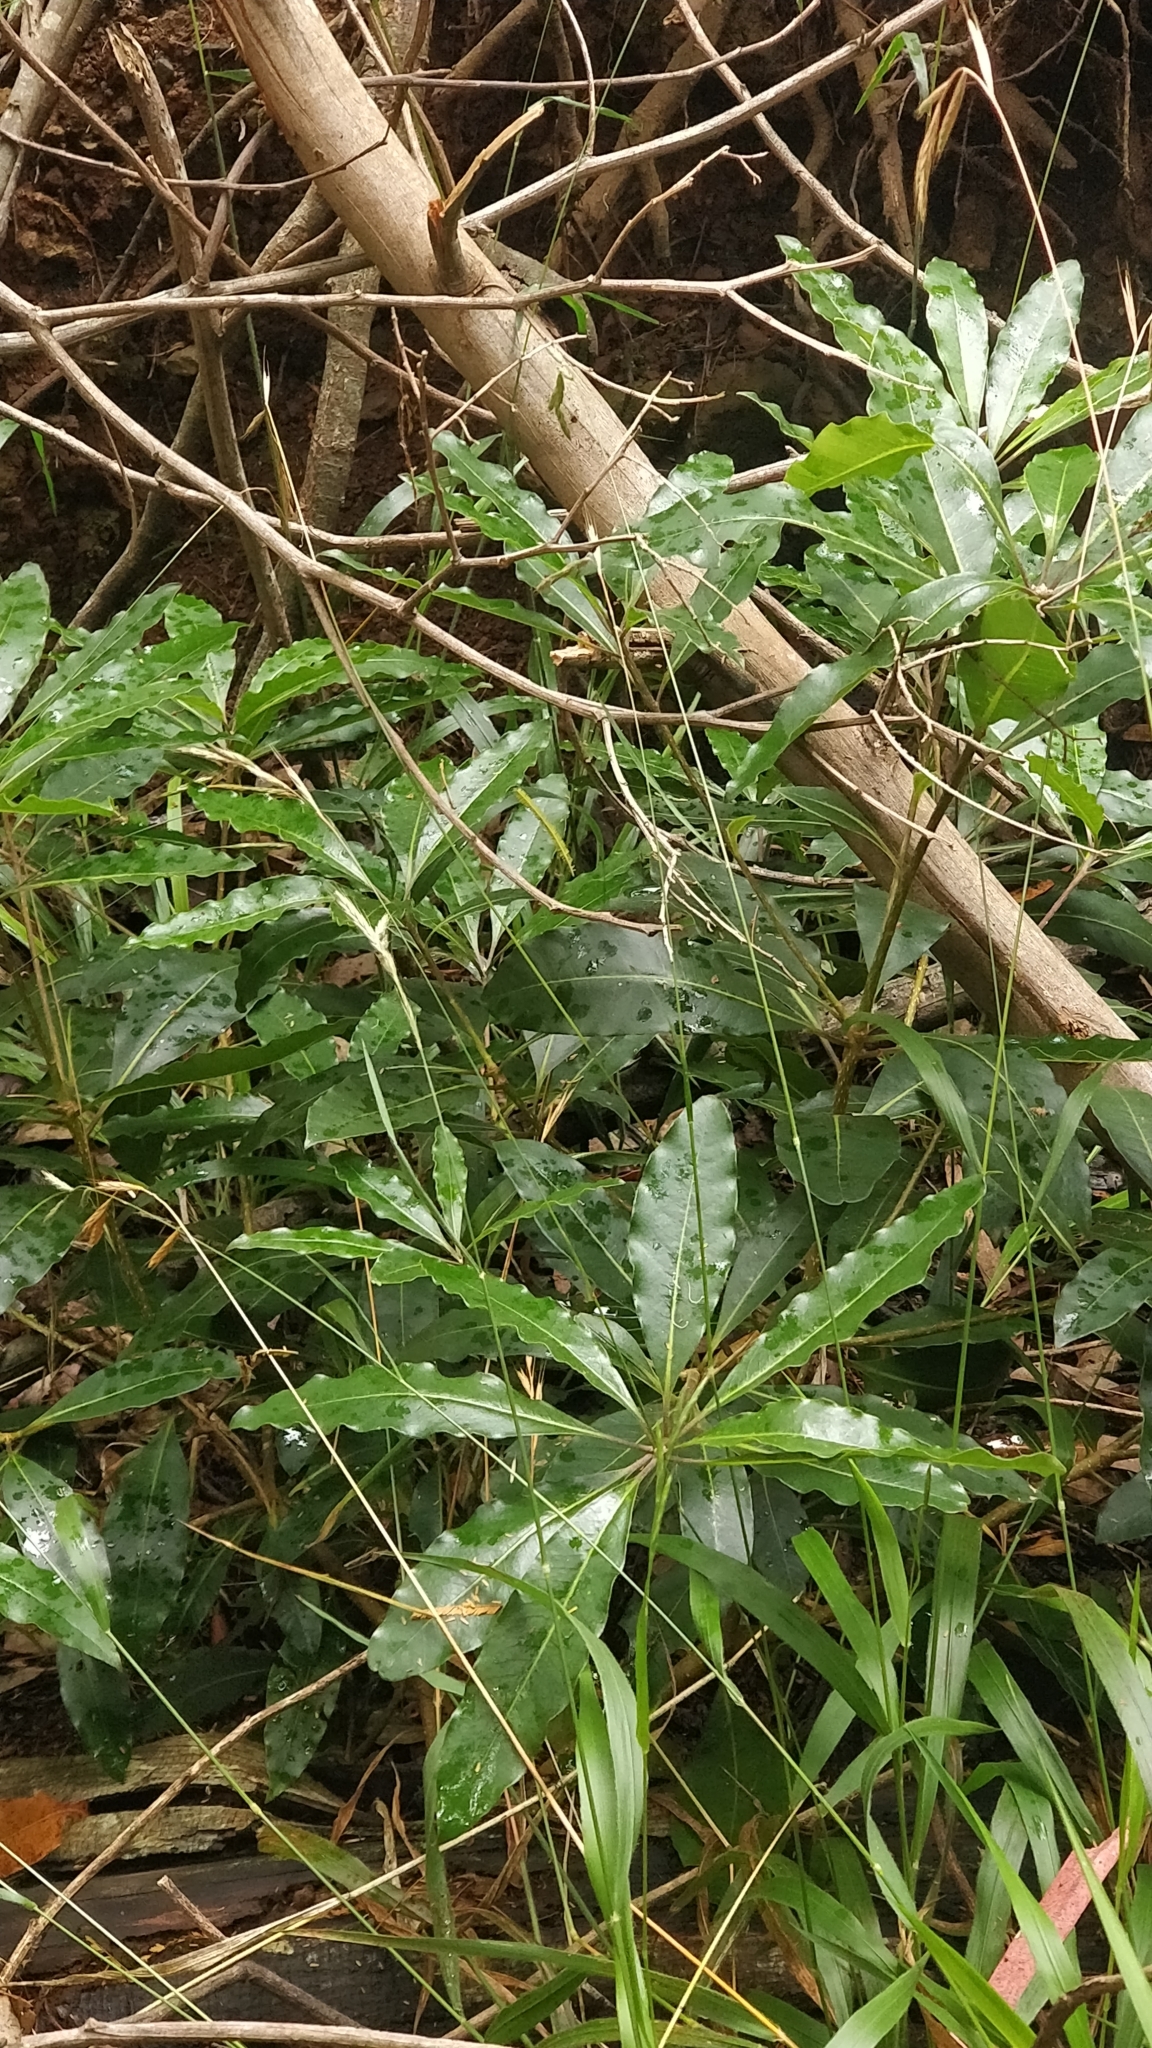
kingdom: Plantae
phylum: Tracheophyta
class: Magnoliopsida
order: Apiales
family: Pittosporaceae
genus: Pittosporum
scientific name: Pittosporum undulatum
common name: Australian cheesewood
